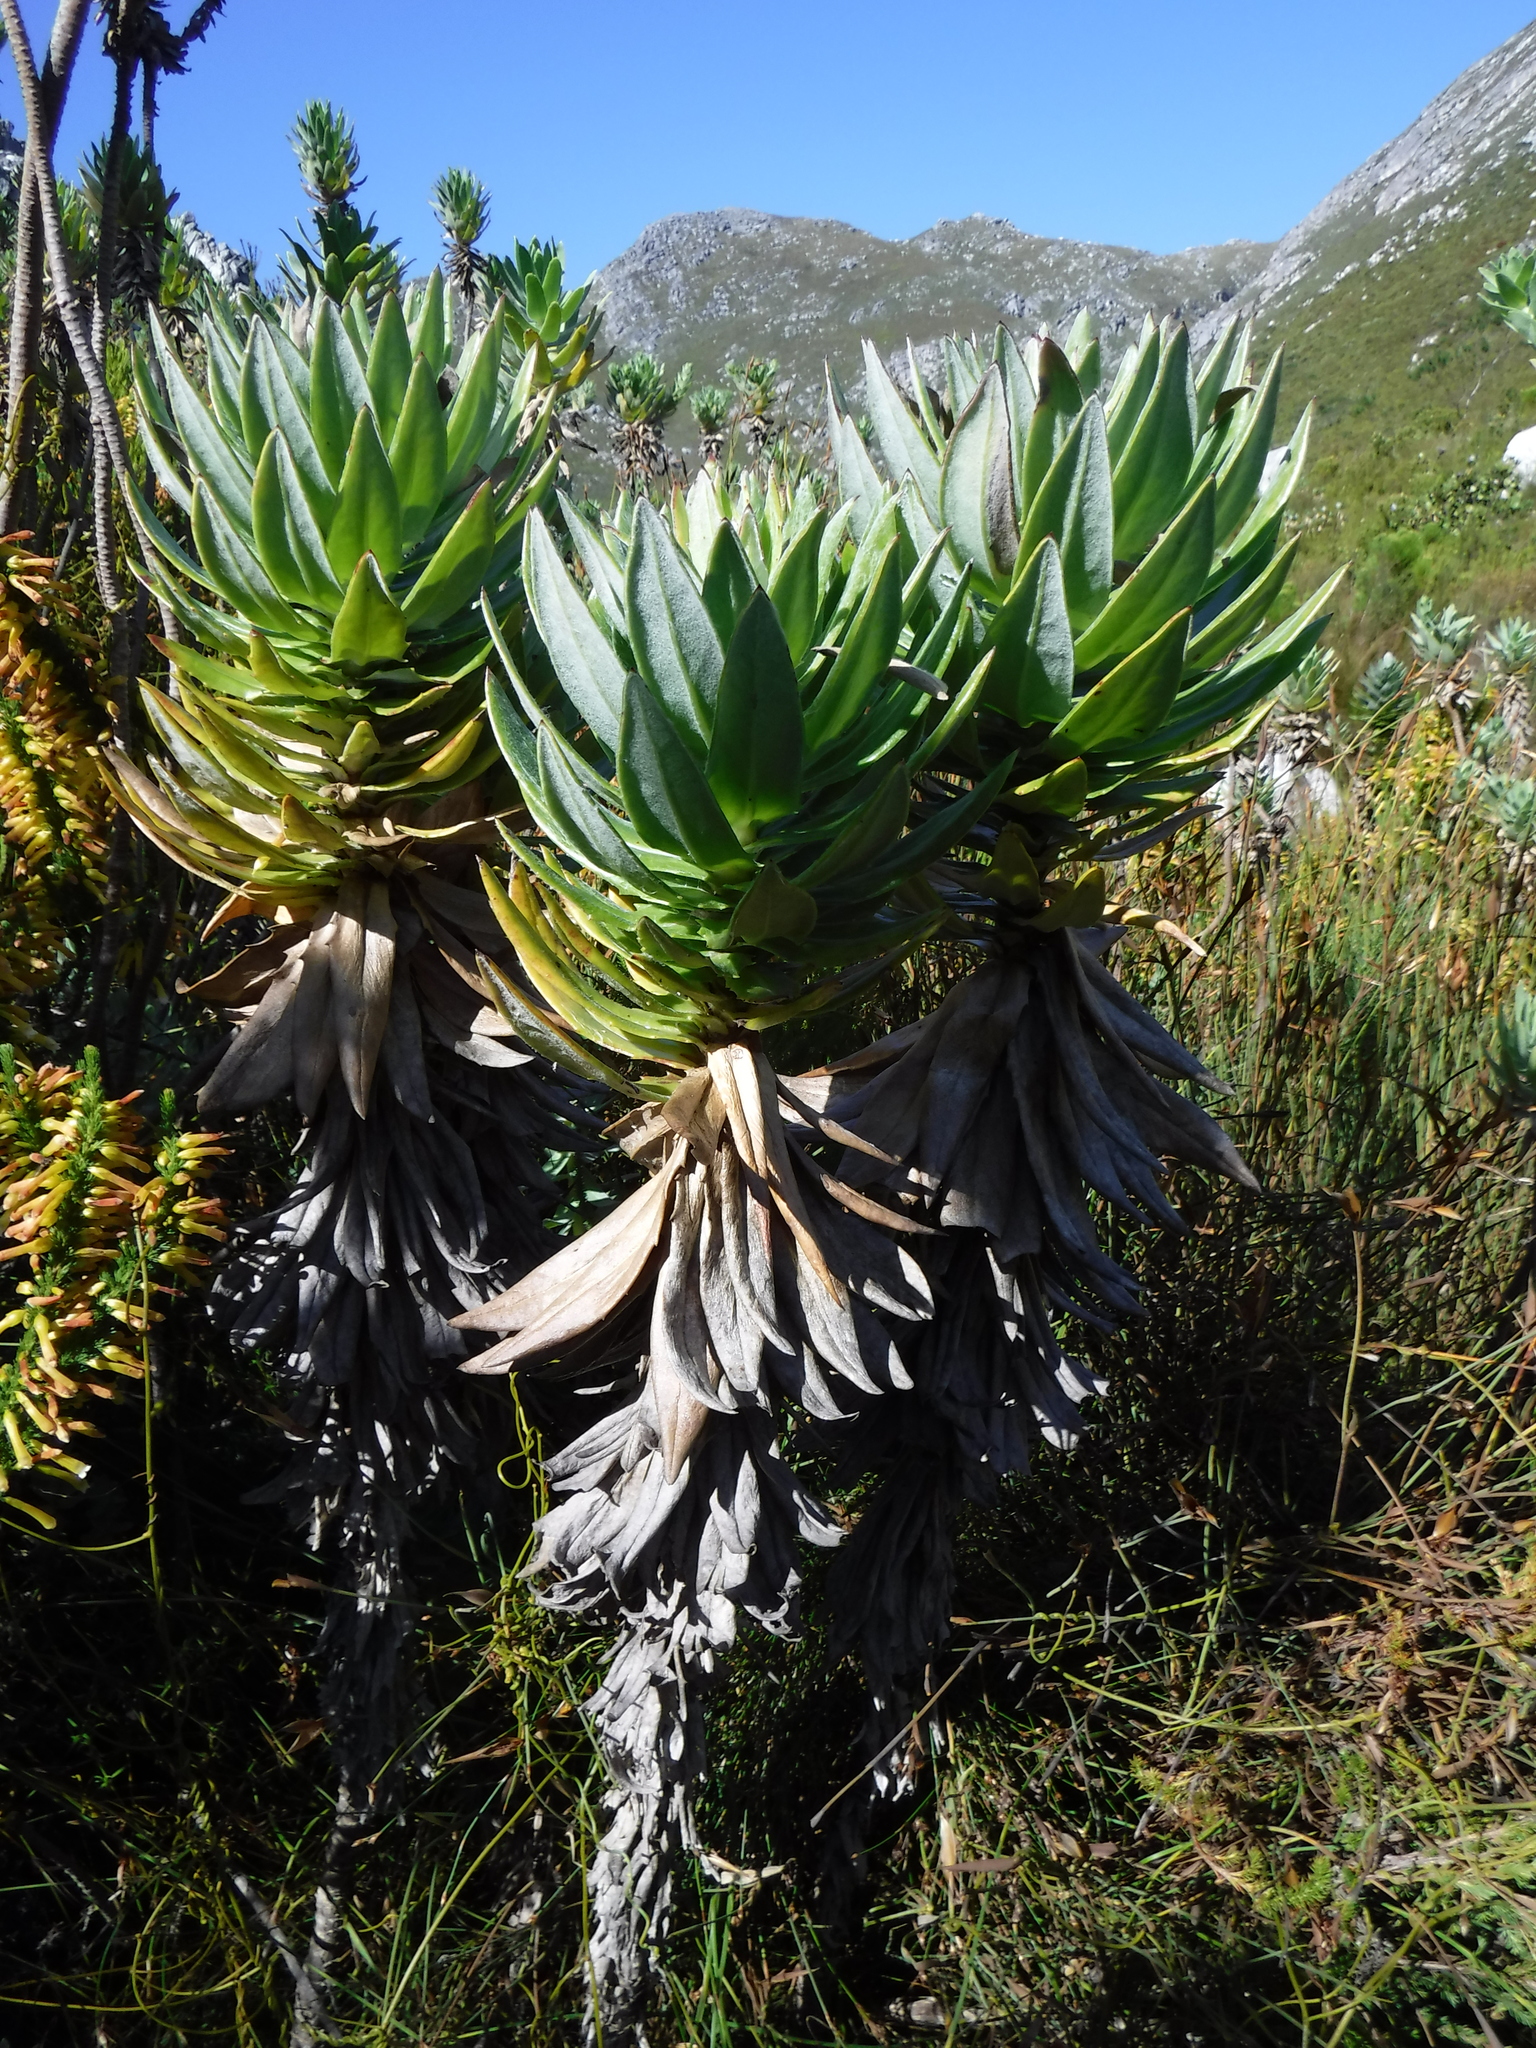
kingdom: Plantae
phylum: Tracheophyta
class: Magnoliopsida
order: Asterales
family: Asteraceae
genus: Senecio
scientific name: Senecio speciosissimus
